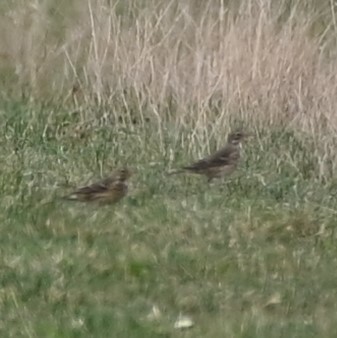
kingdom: Animalia
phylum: Chordata
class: Aves
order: Passeriformes
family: Motacillidae
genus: Anthus
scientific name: Anthus rubescens
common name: Buff-bellied pipit
